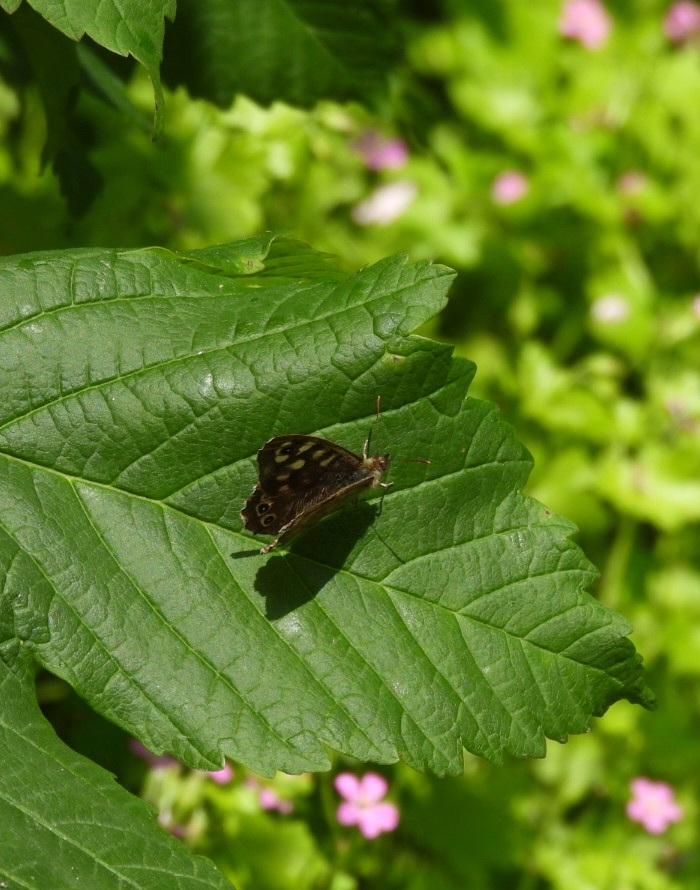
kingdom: Animalia
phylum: Arthropoda
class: Insecta
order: Lepidoptera
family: Nymphalidae
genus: Pararge
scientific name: Pararge aegeria
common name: Speckled wood
